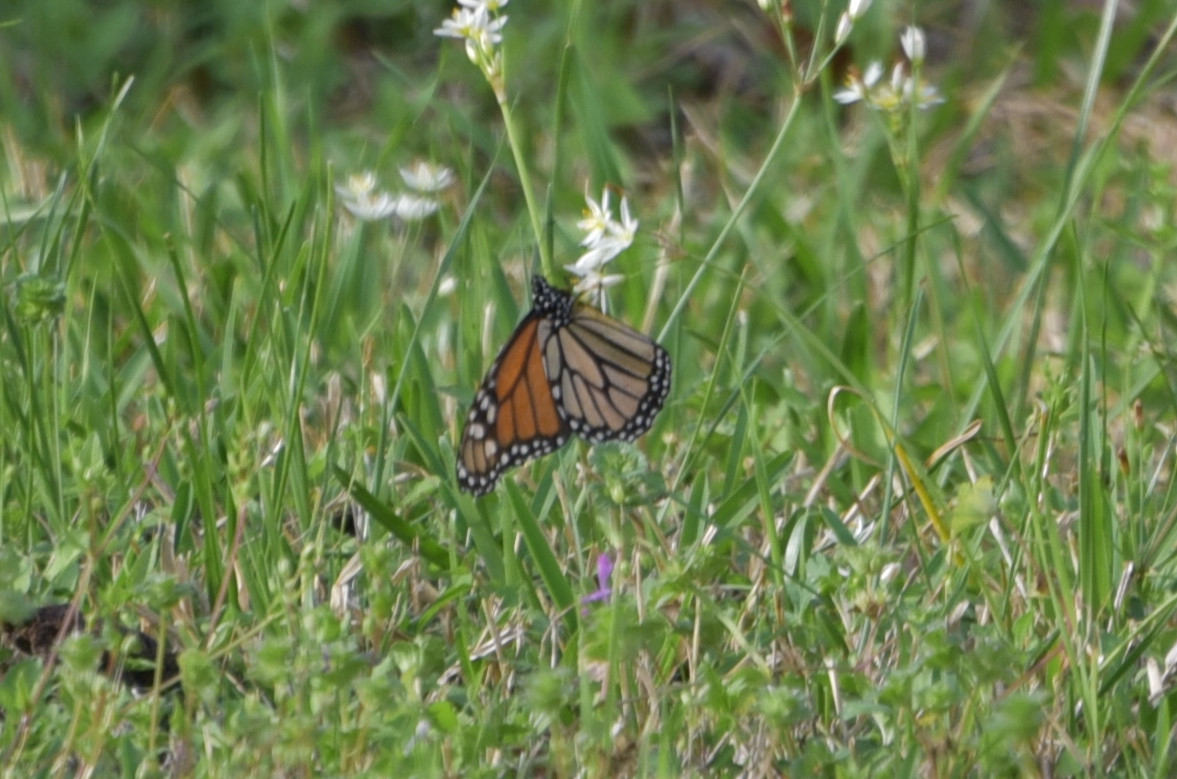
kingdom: Animalia
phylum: Arthropoda
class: Insecta
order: Lepidoptera
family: Nymphalidae
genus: Danaus
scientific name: Danaus plexippus
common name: Monarch
